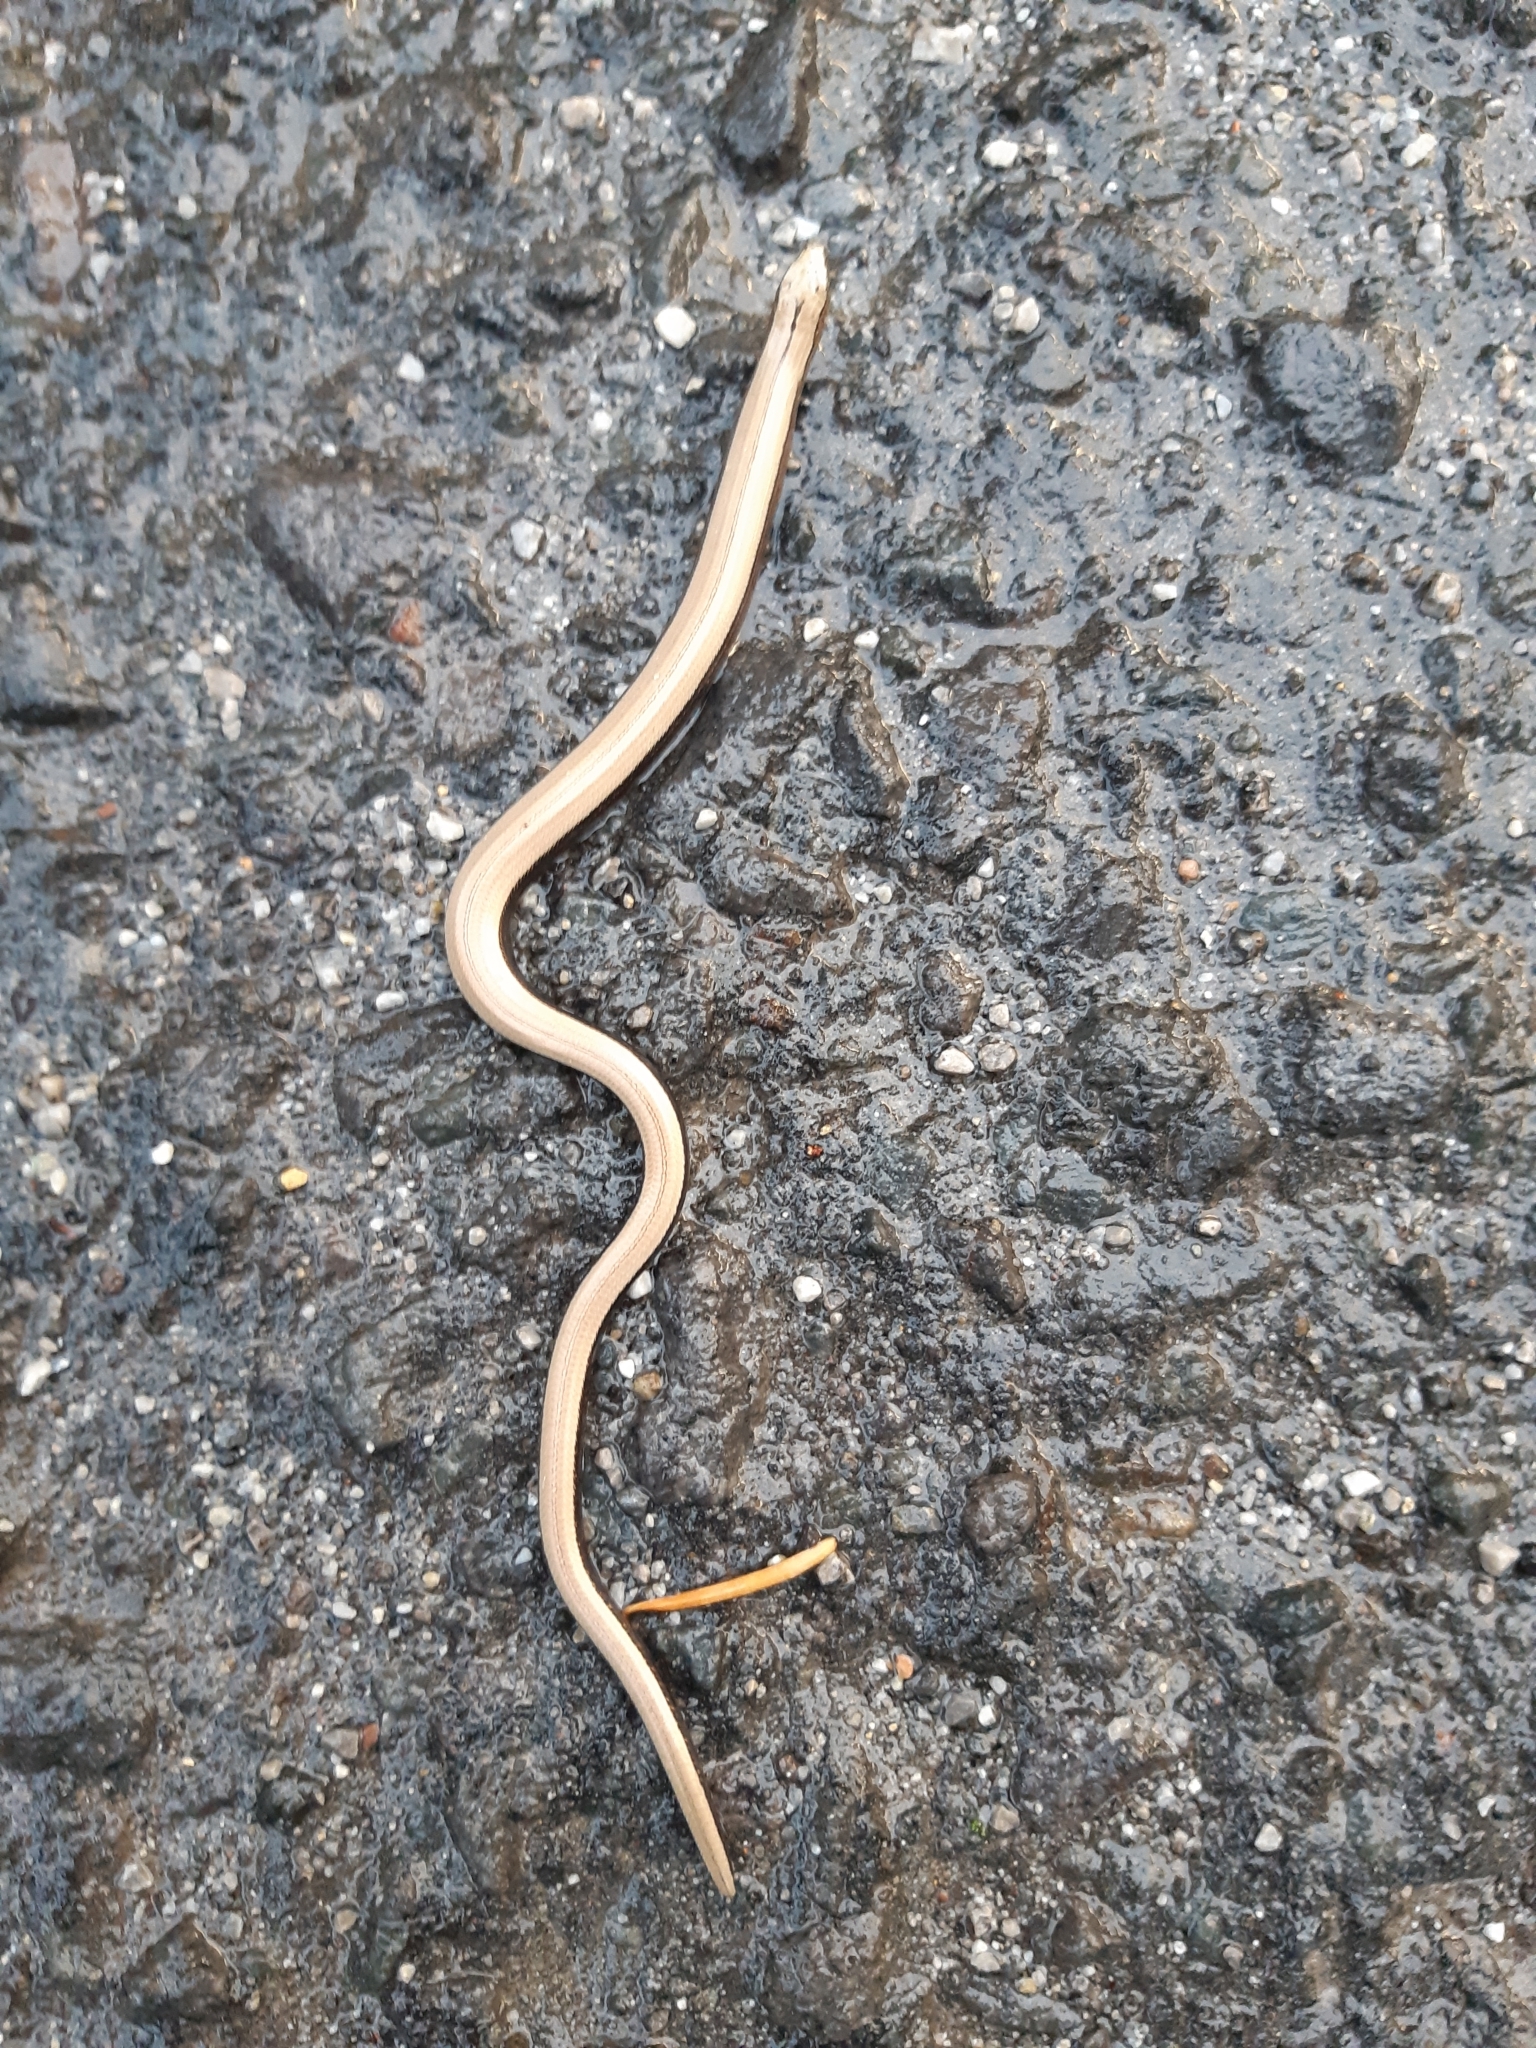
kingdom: Animalia
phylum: Chordata
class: Squamata
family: Anguidae
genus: Anguis
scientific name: Anguis colchica
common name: Slow worm
